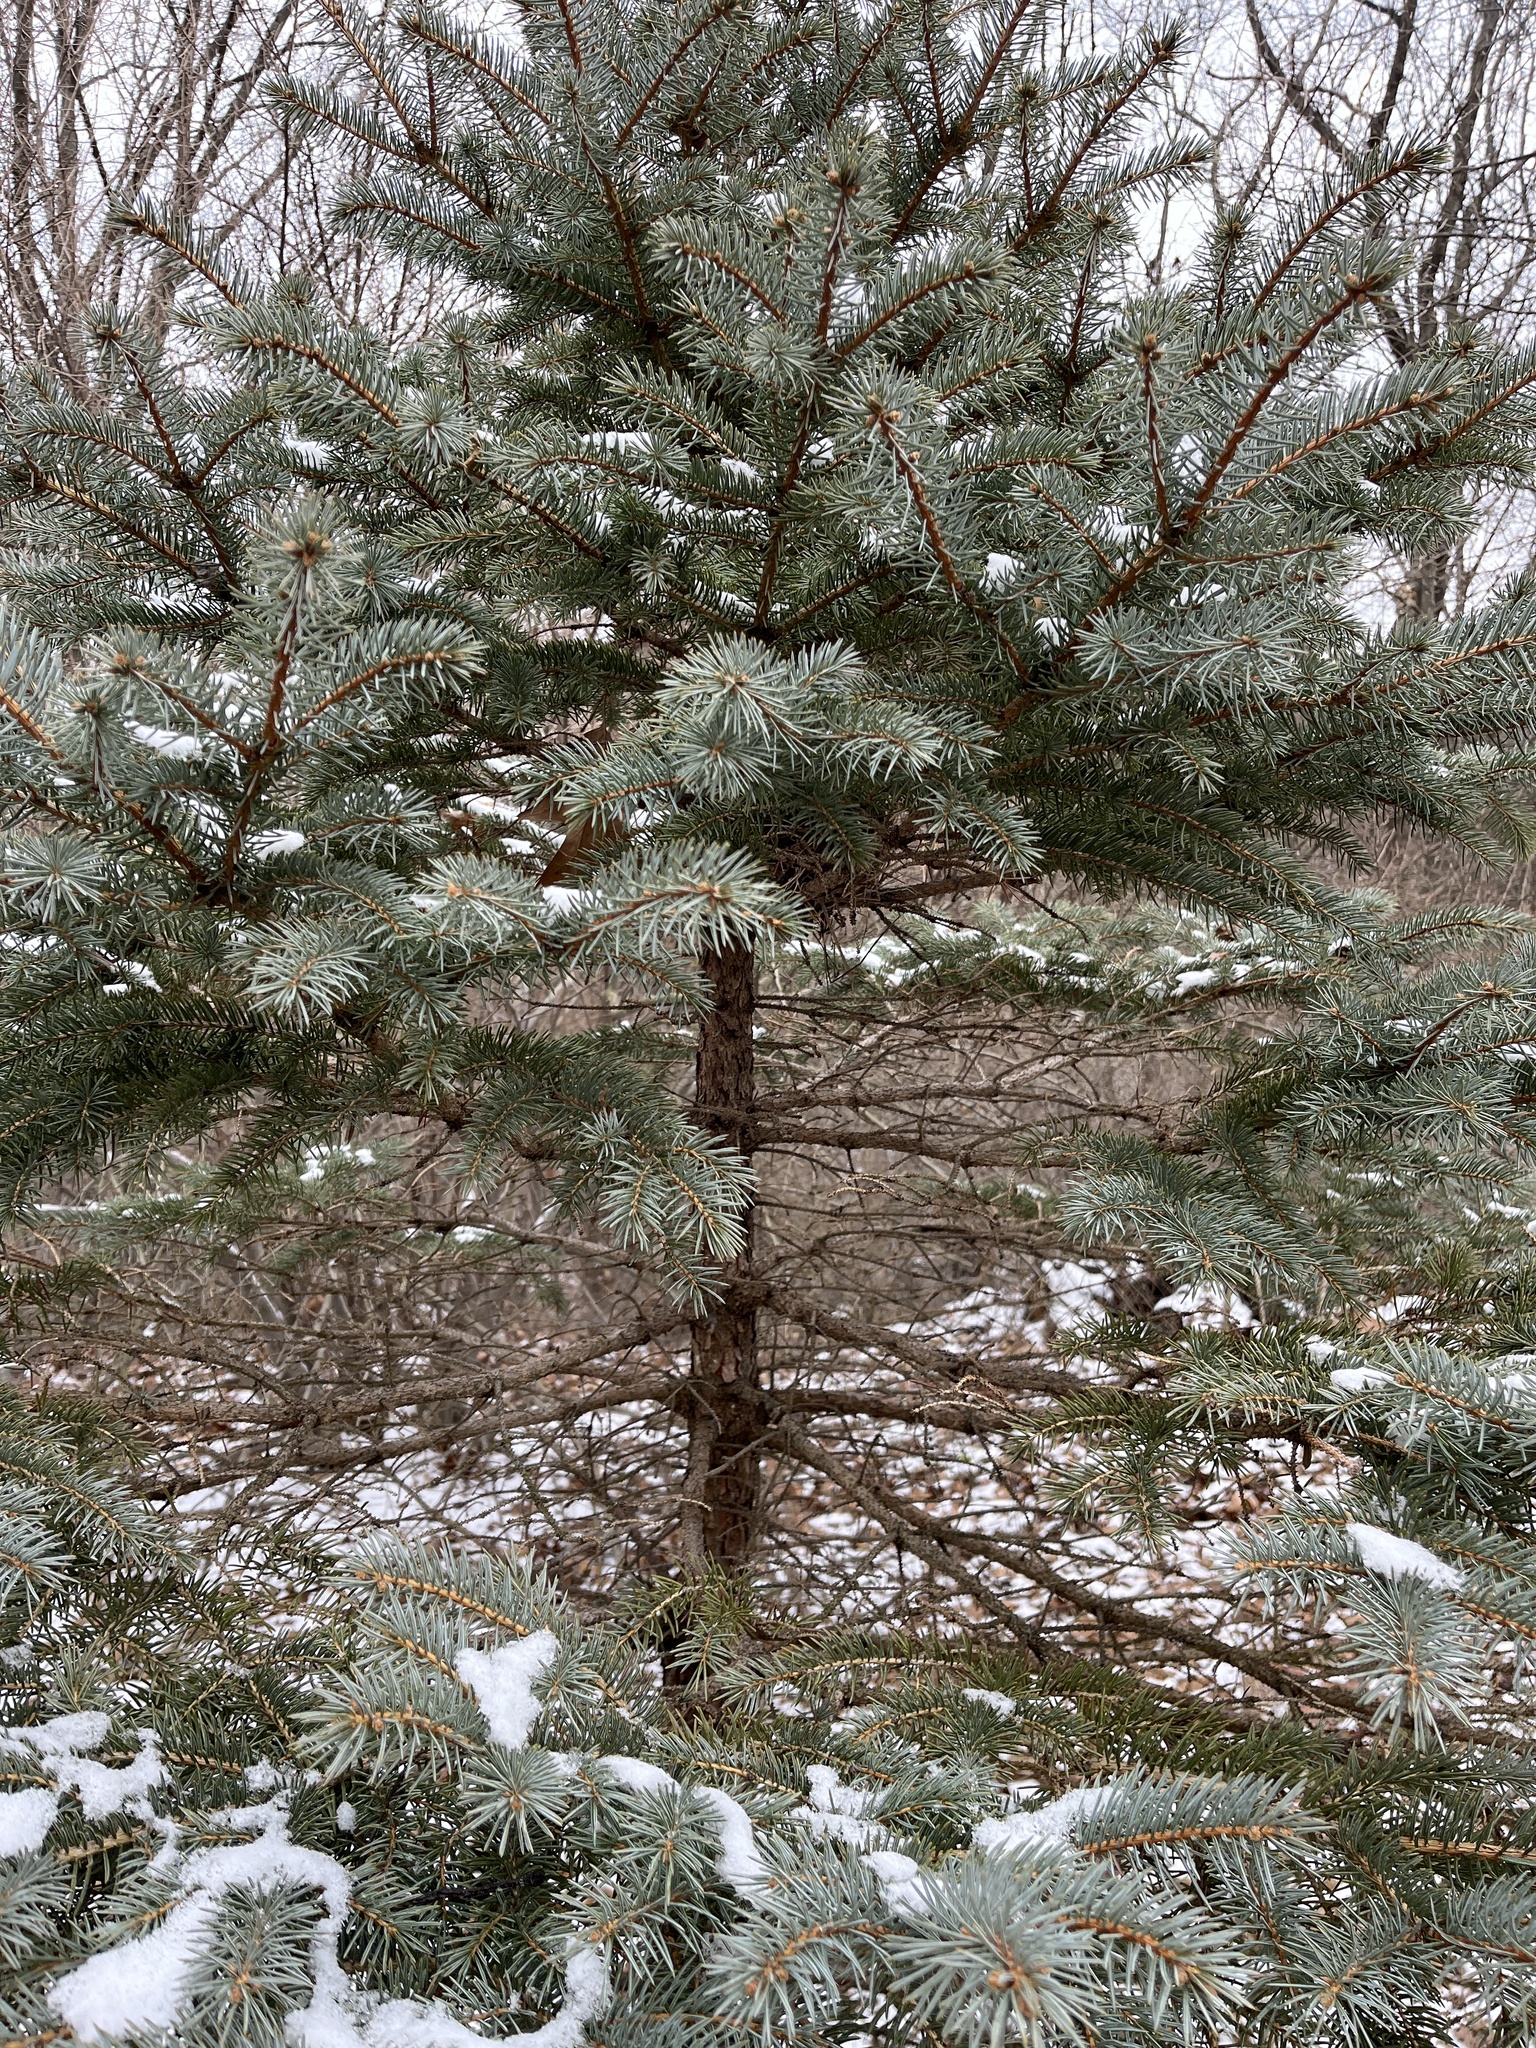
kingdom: Plantae
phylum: Tracheophyta
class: Pinopsida
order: Pinales
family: Pinaceae
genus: Picea
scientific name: Picea pungens
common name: Colorado spruce
